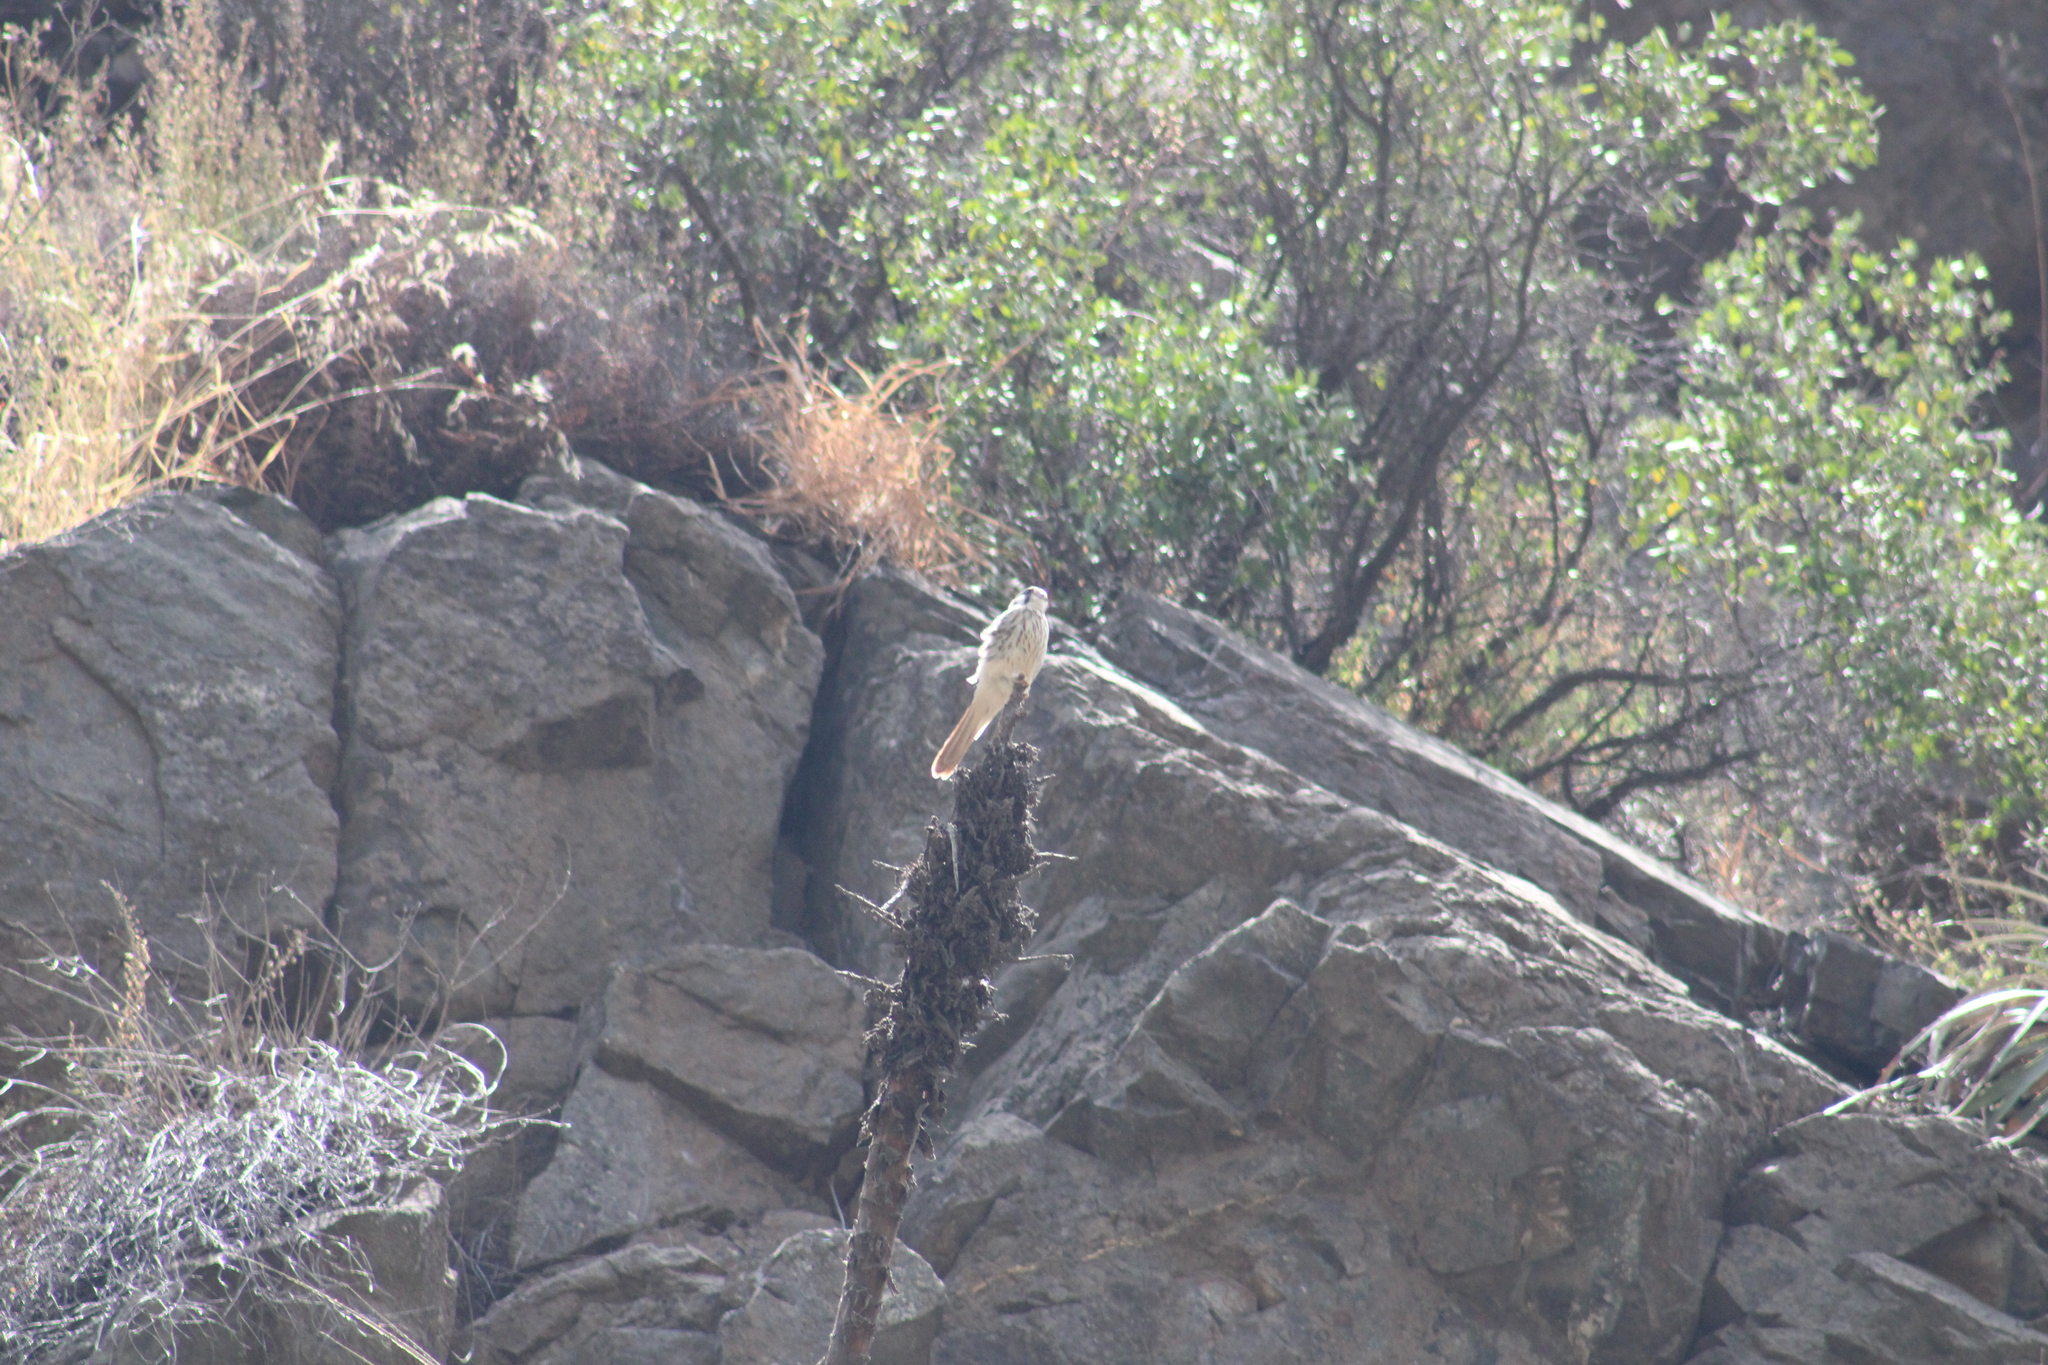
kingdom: Animalia
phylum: Chordata
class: Aves
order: Falconiformes
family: Falconidae
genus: Falco
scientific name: Falco sparverius
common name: American kestrel
